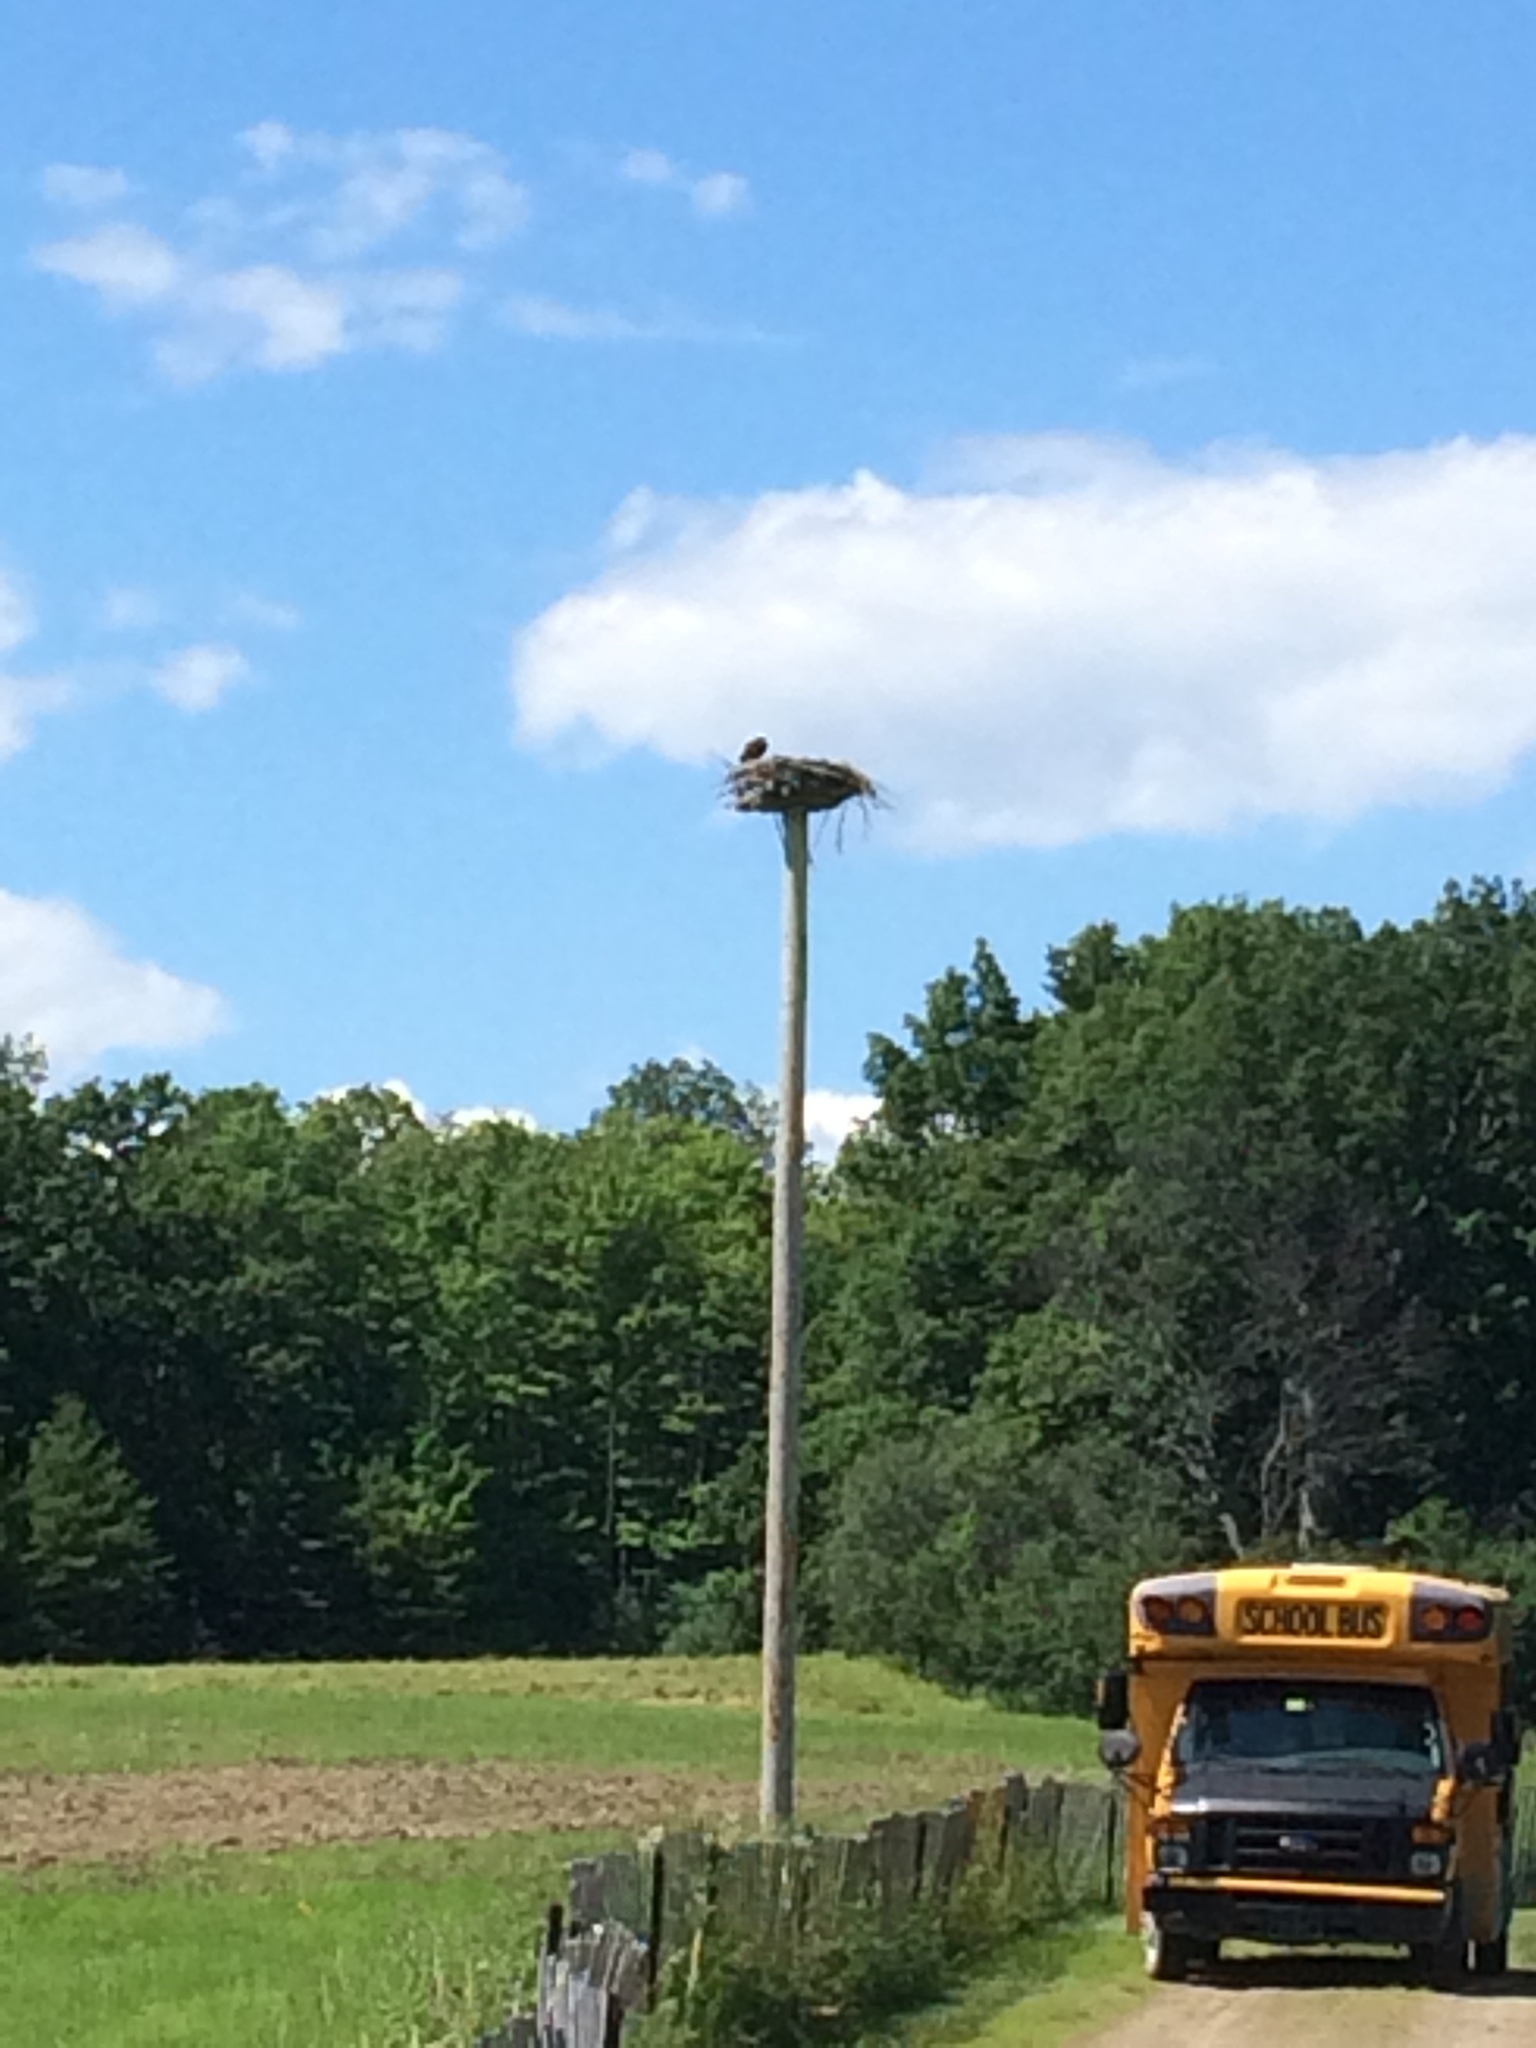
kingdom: Animalia
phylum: Chordata
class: Aves
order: Accipitriformes
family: Pandionidae
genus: Pandion
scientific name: Pandion haliaetus
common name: Osprey
